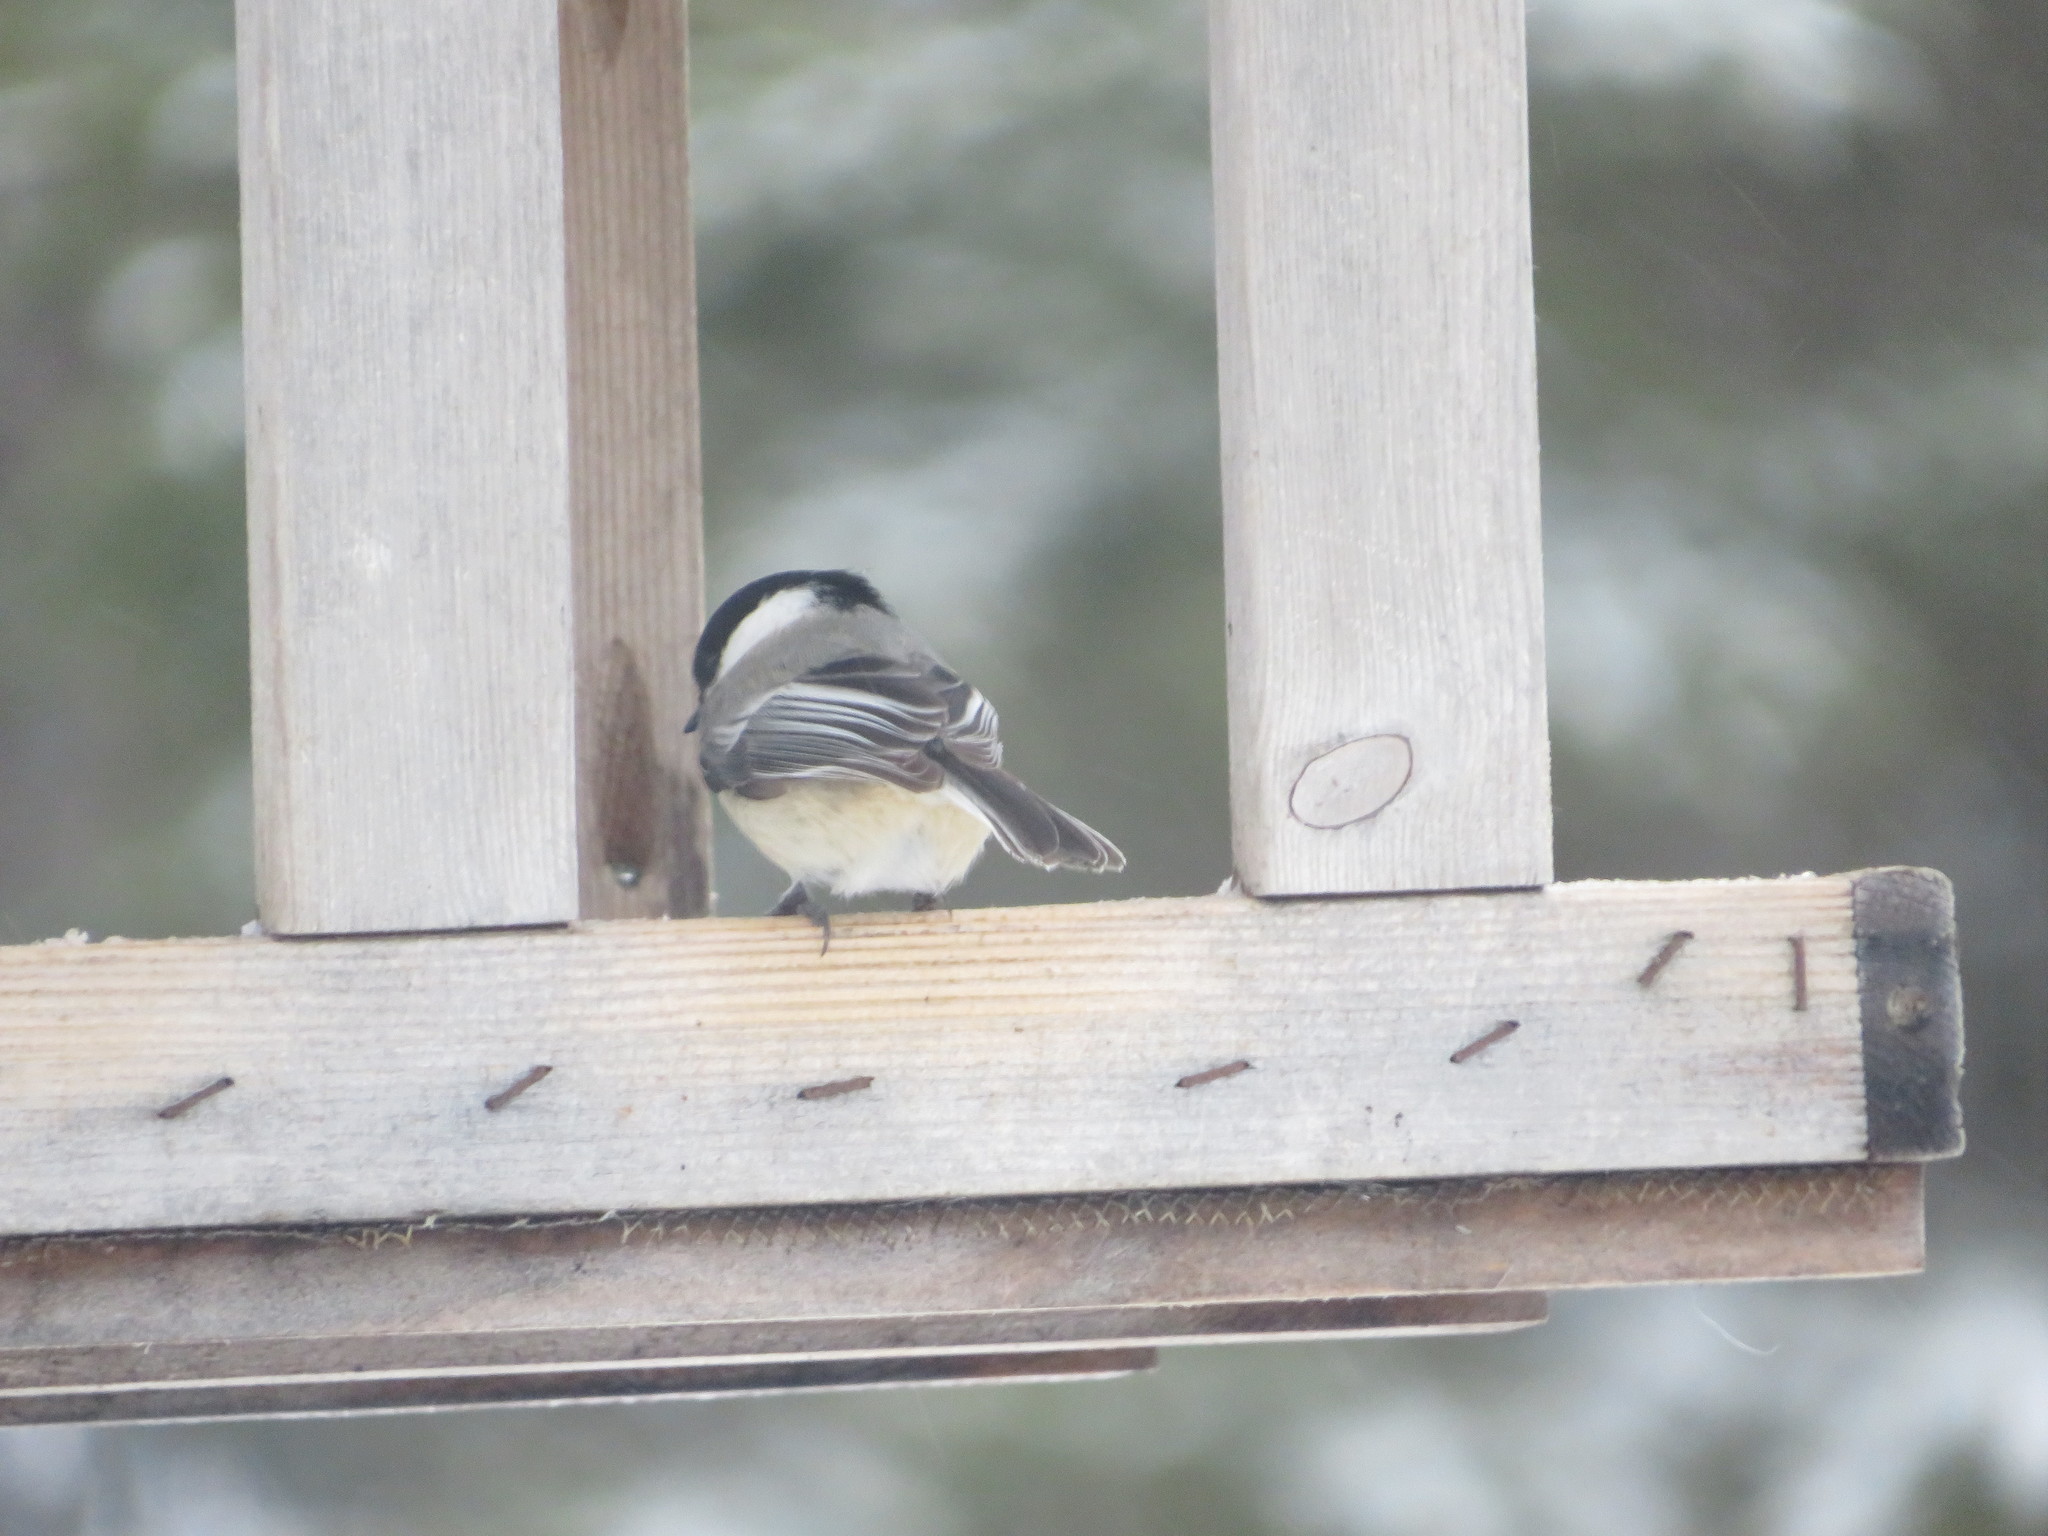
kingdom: Animalia
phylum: Chordata
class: Aves
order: Passeriformes
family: Paridae
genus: Poecile
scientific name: Poecile atricapillus
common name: Black-capped chickadee
